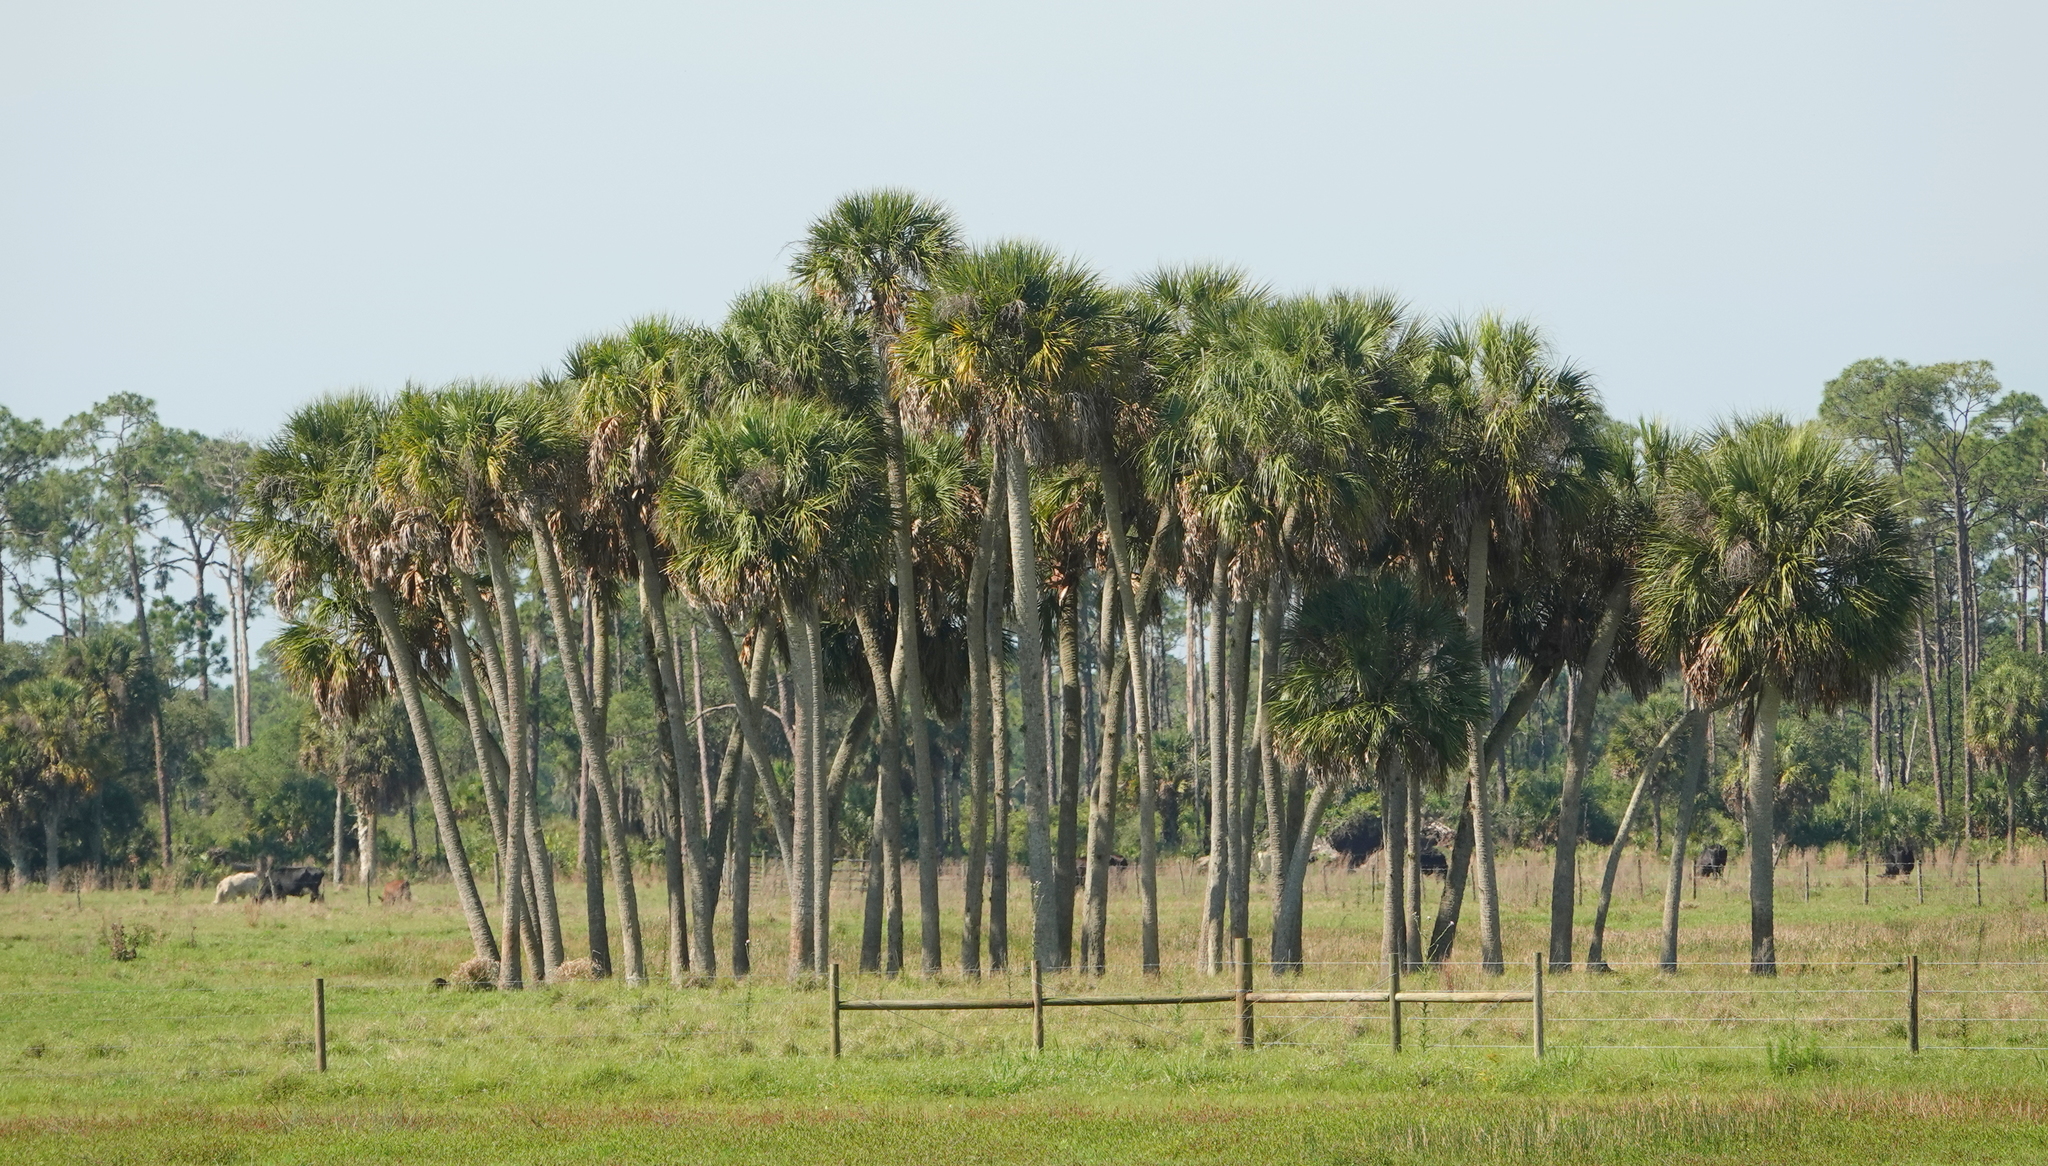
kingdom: Plantae
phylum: Tracheophyta
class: Liliopsida
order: Arecales
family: Arecaceae
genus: Sabal
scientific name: Sabal palmetto
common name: Blue palmetto
